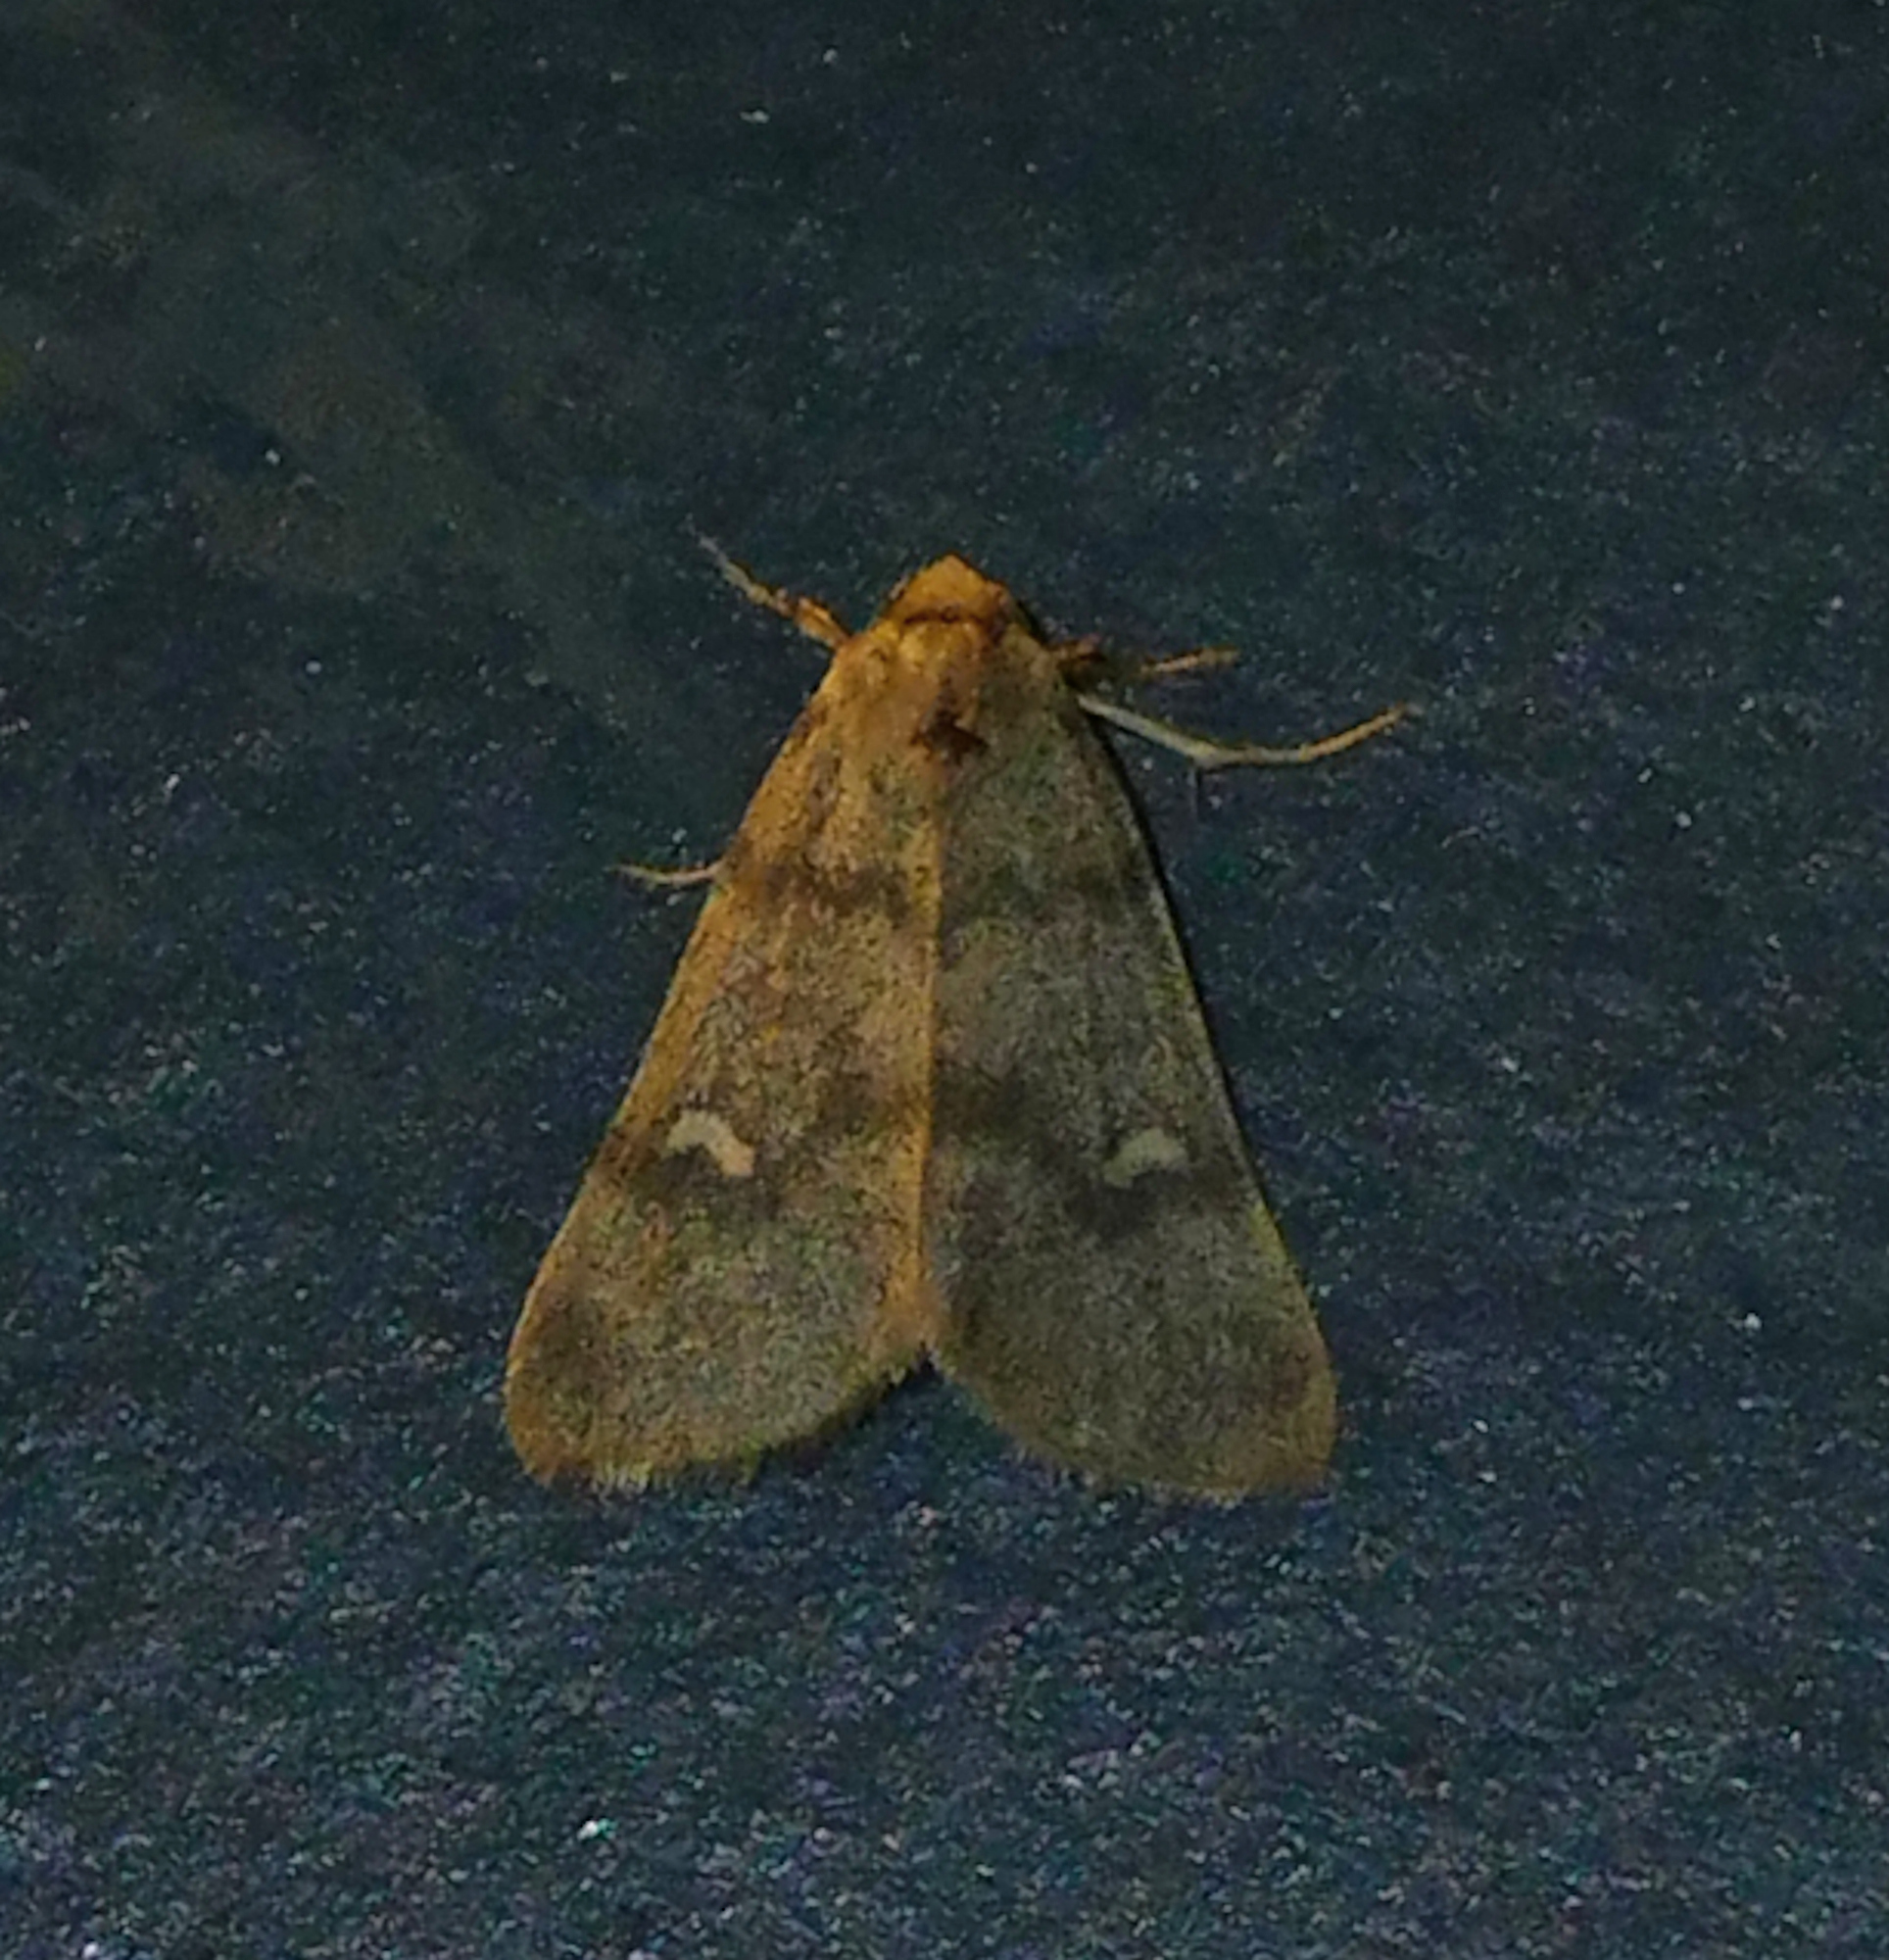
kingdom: Animalia
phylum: Arthropoda
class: Insecta
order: Lepidoptera
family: Noctuidae
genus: Narthecophora
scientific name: Narthecophora pulverea
